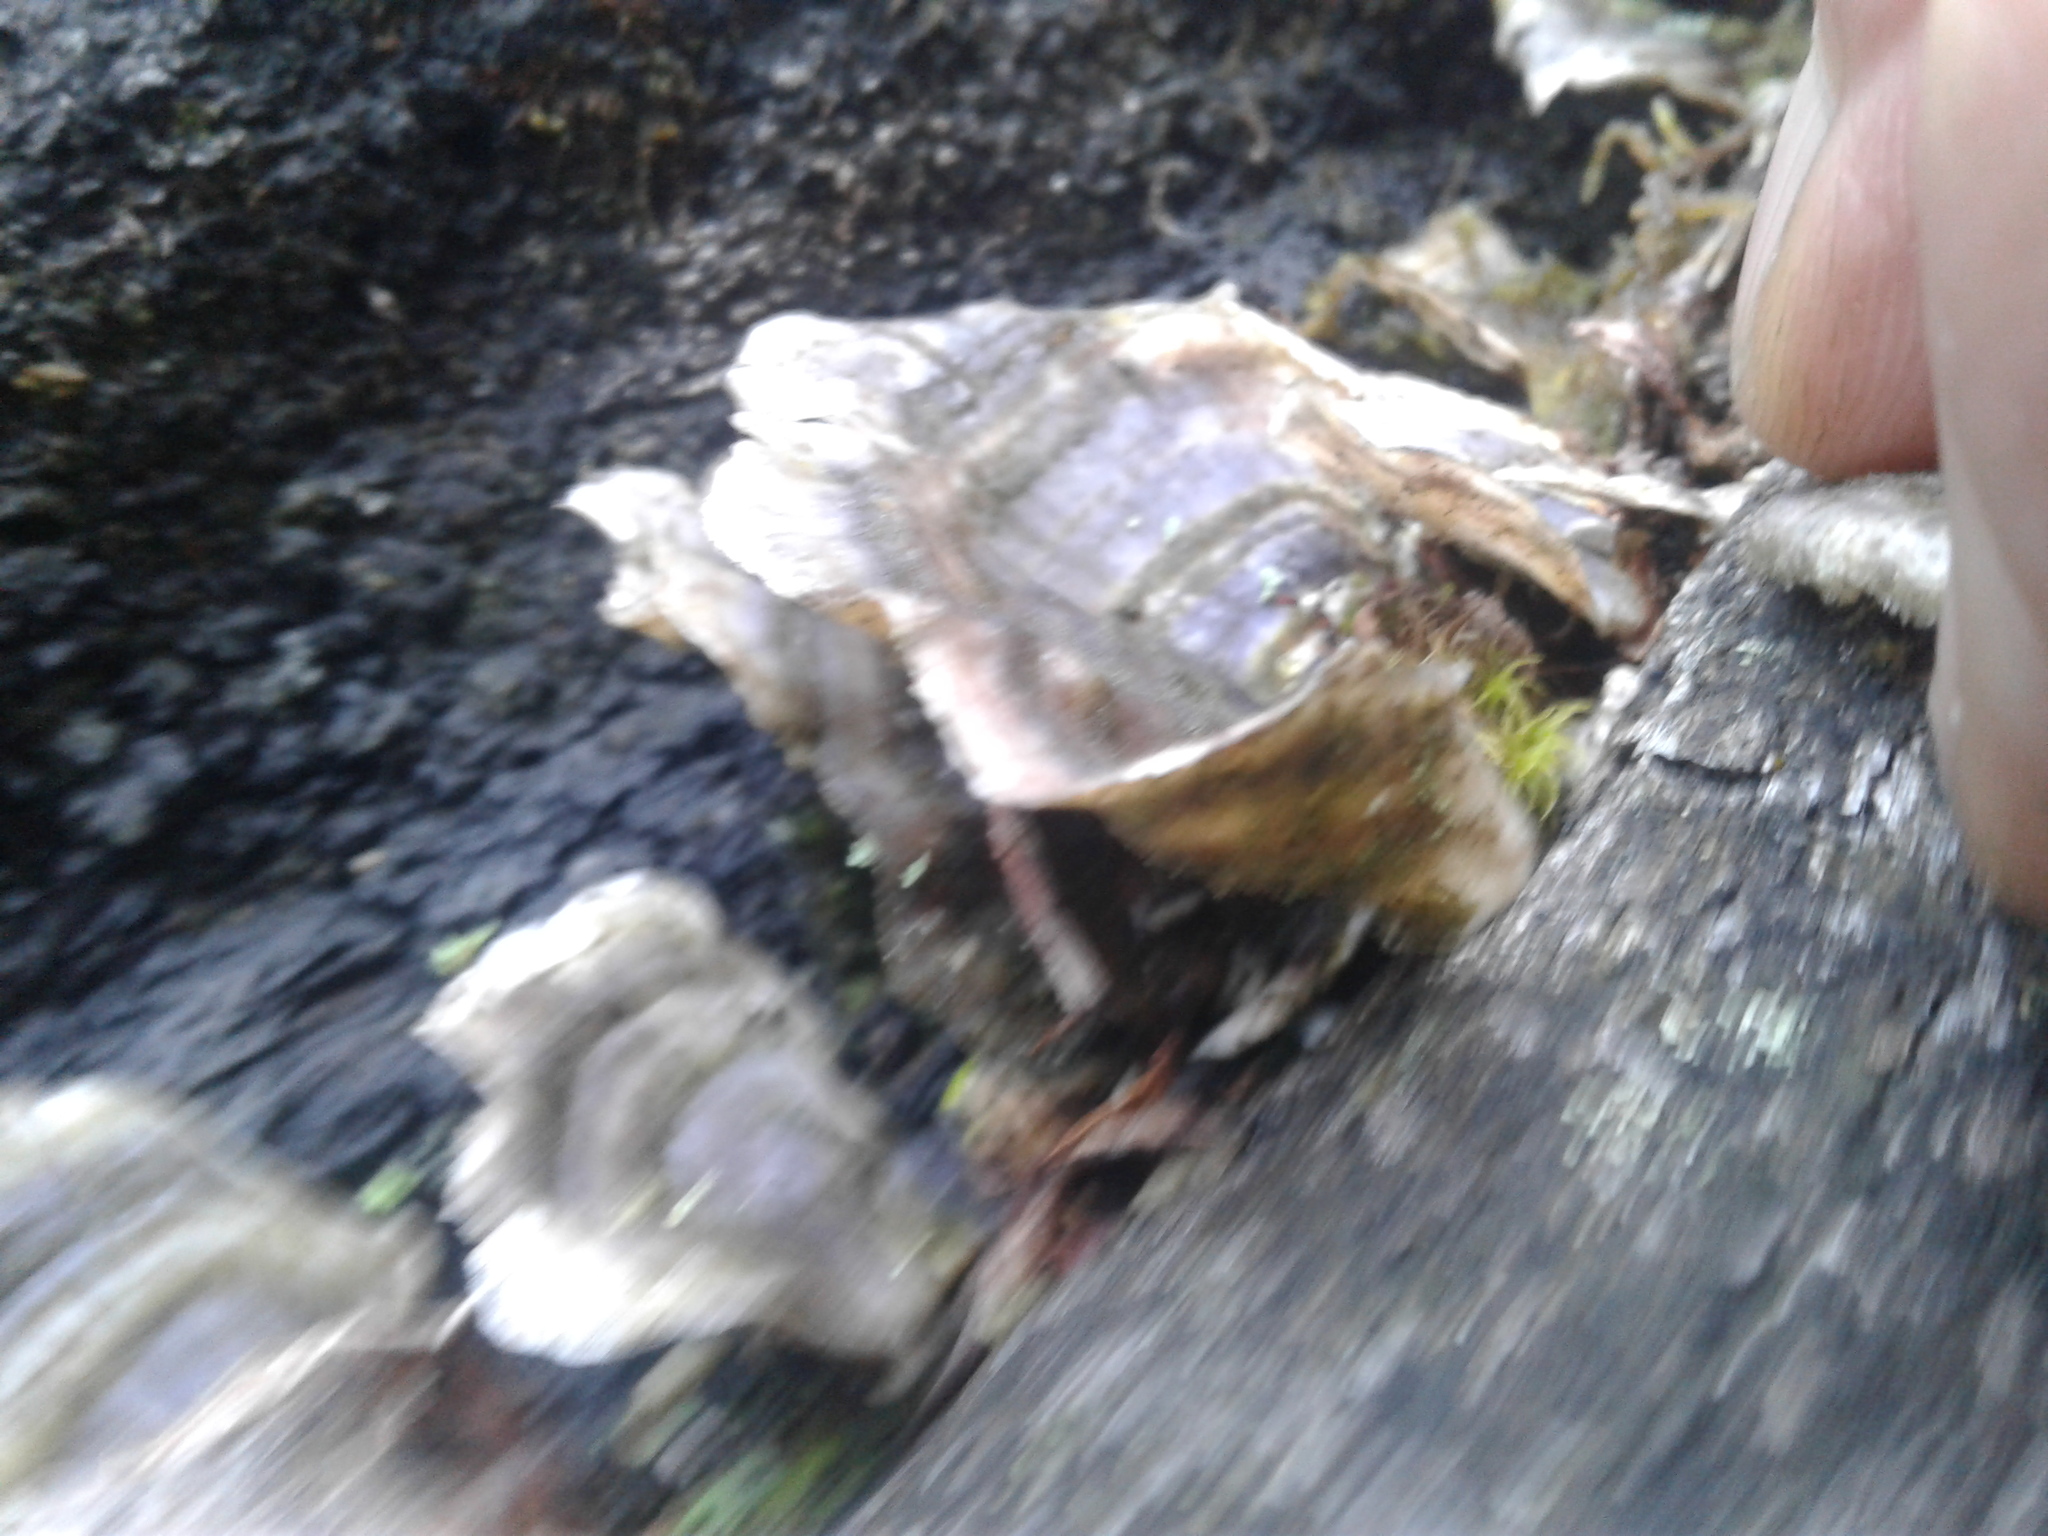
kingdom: Fungi
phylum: Basidiomycota
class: Agaricomycetes
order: Polyporales
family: Polyporaceae
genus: Trametes
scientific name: Trametes versicolor
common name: Turkeytail
